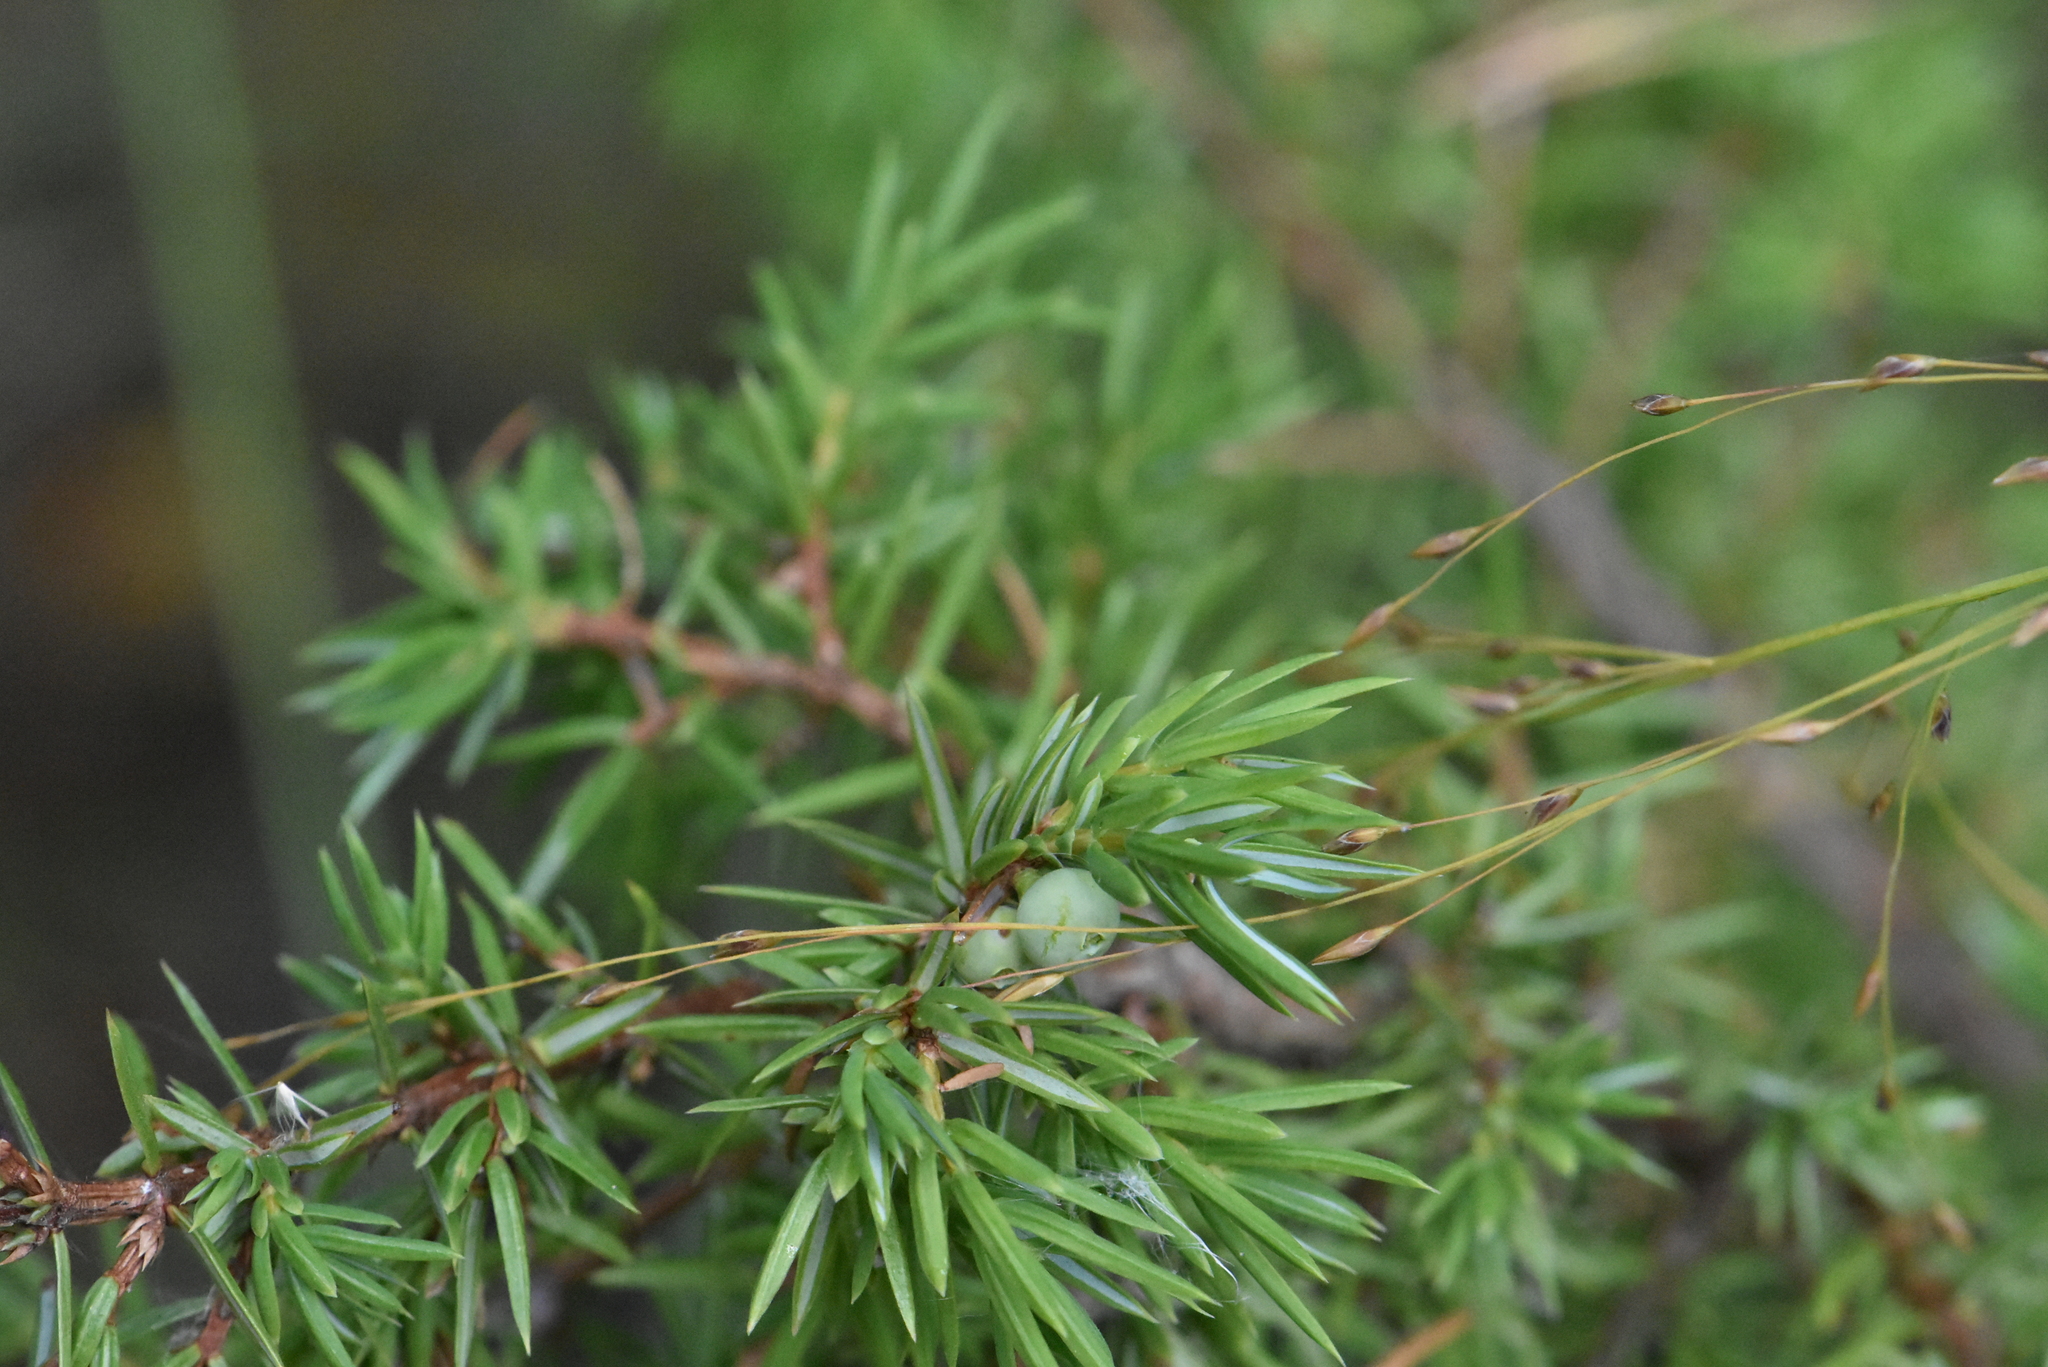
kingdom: Plantae
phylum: Tracheophyta
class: Pinopsida
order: Pinales
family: Cupressaceae
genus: Juniperus
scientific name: Juniperus communis
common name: Common juniper
